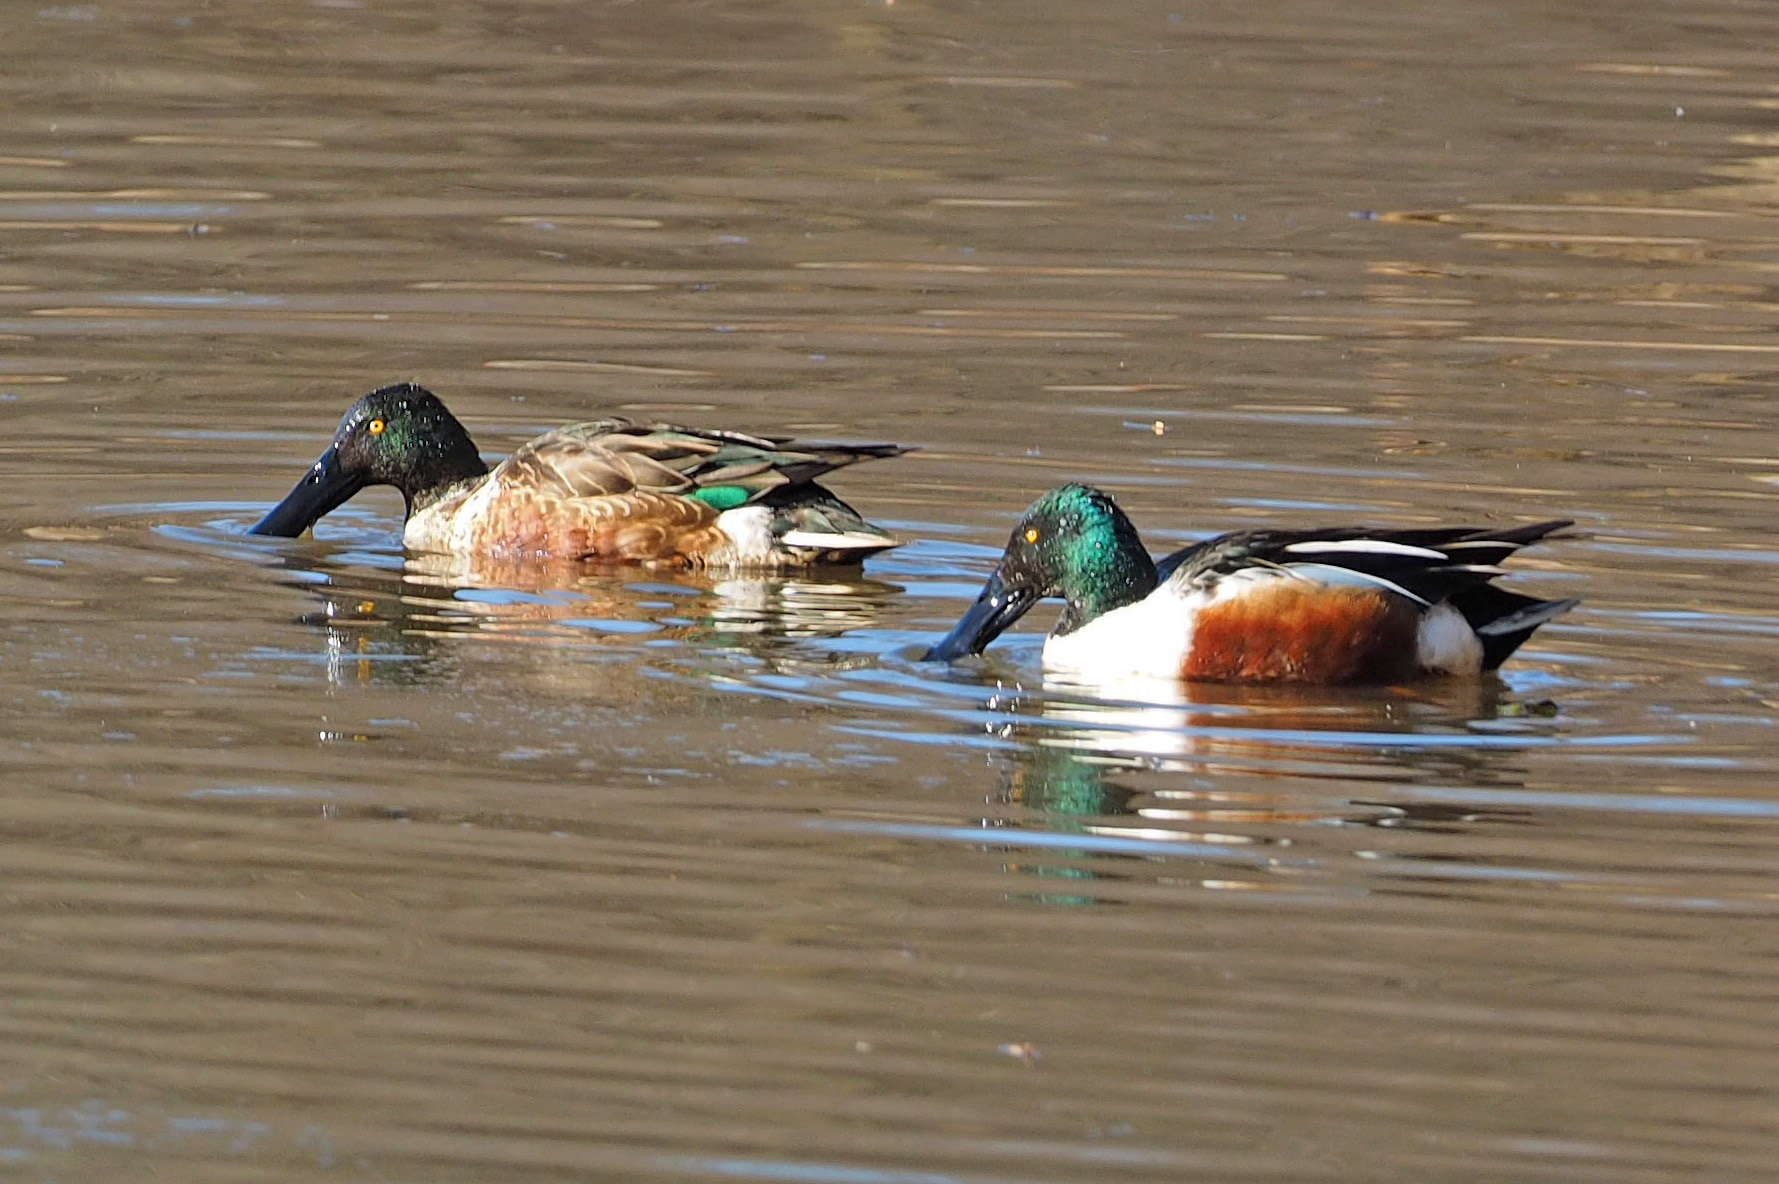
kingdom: Animalia
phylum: Chordata
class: Aves
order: Anseriformes
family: Anatidae
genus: Spatula
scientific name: Spatula clypeata
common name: Northern shoveler
